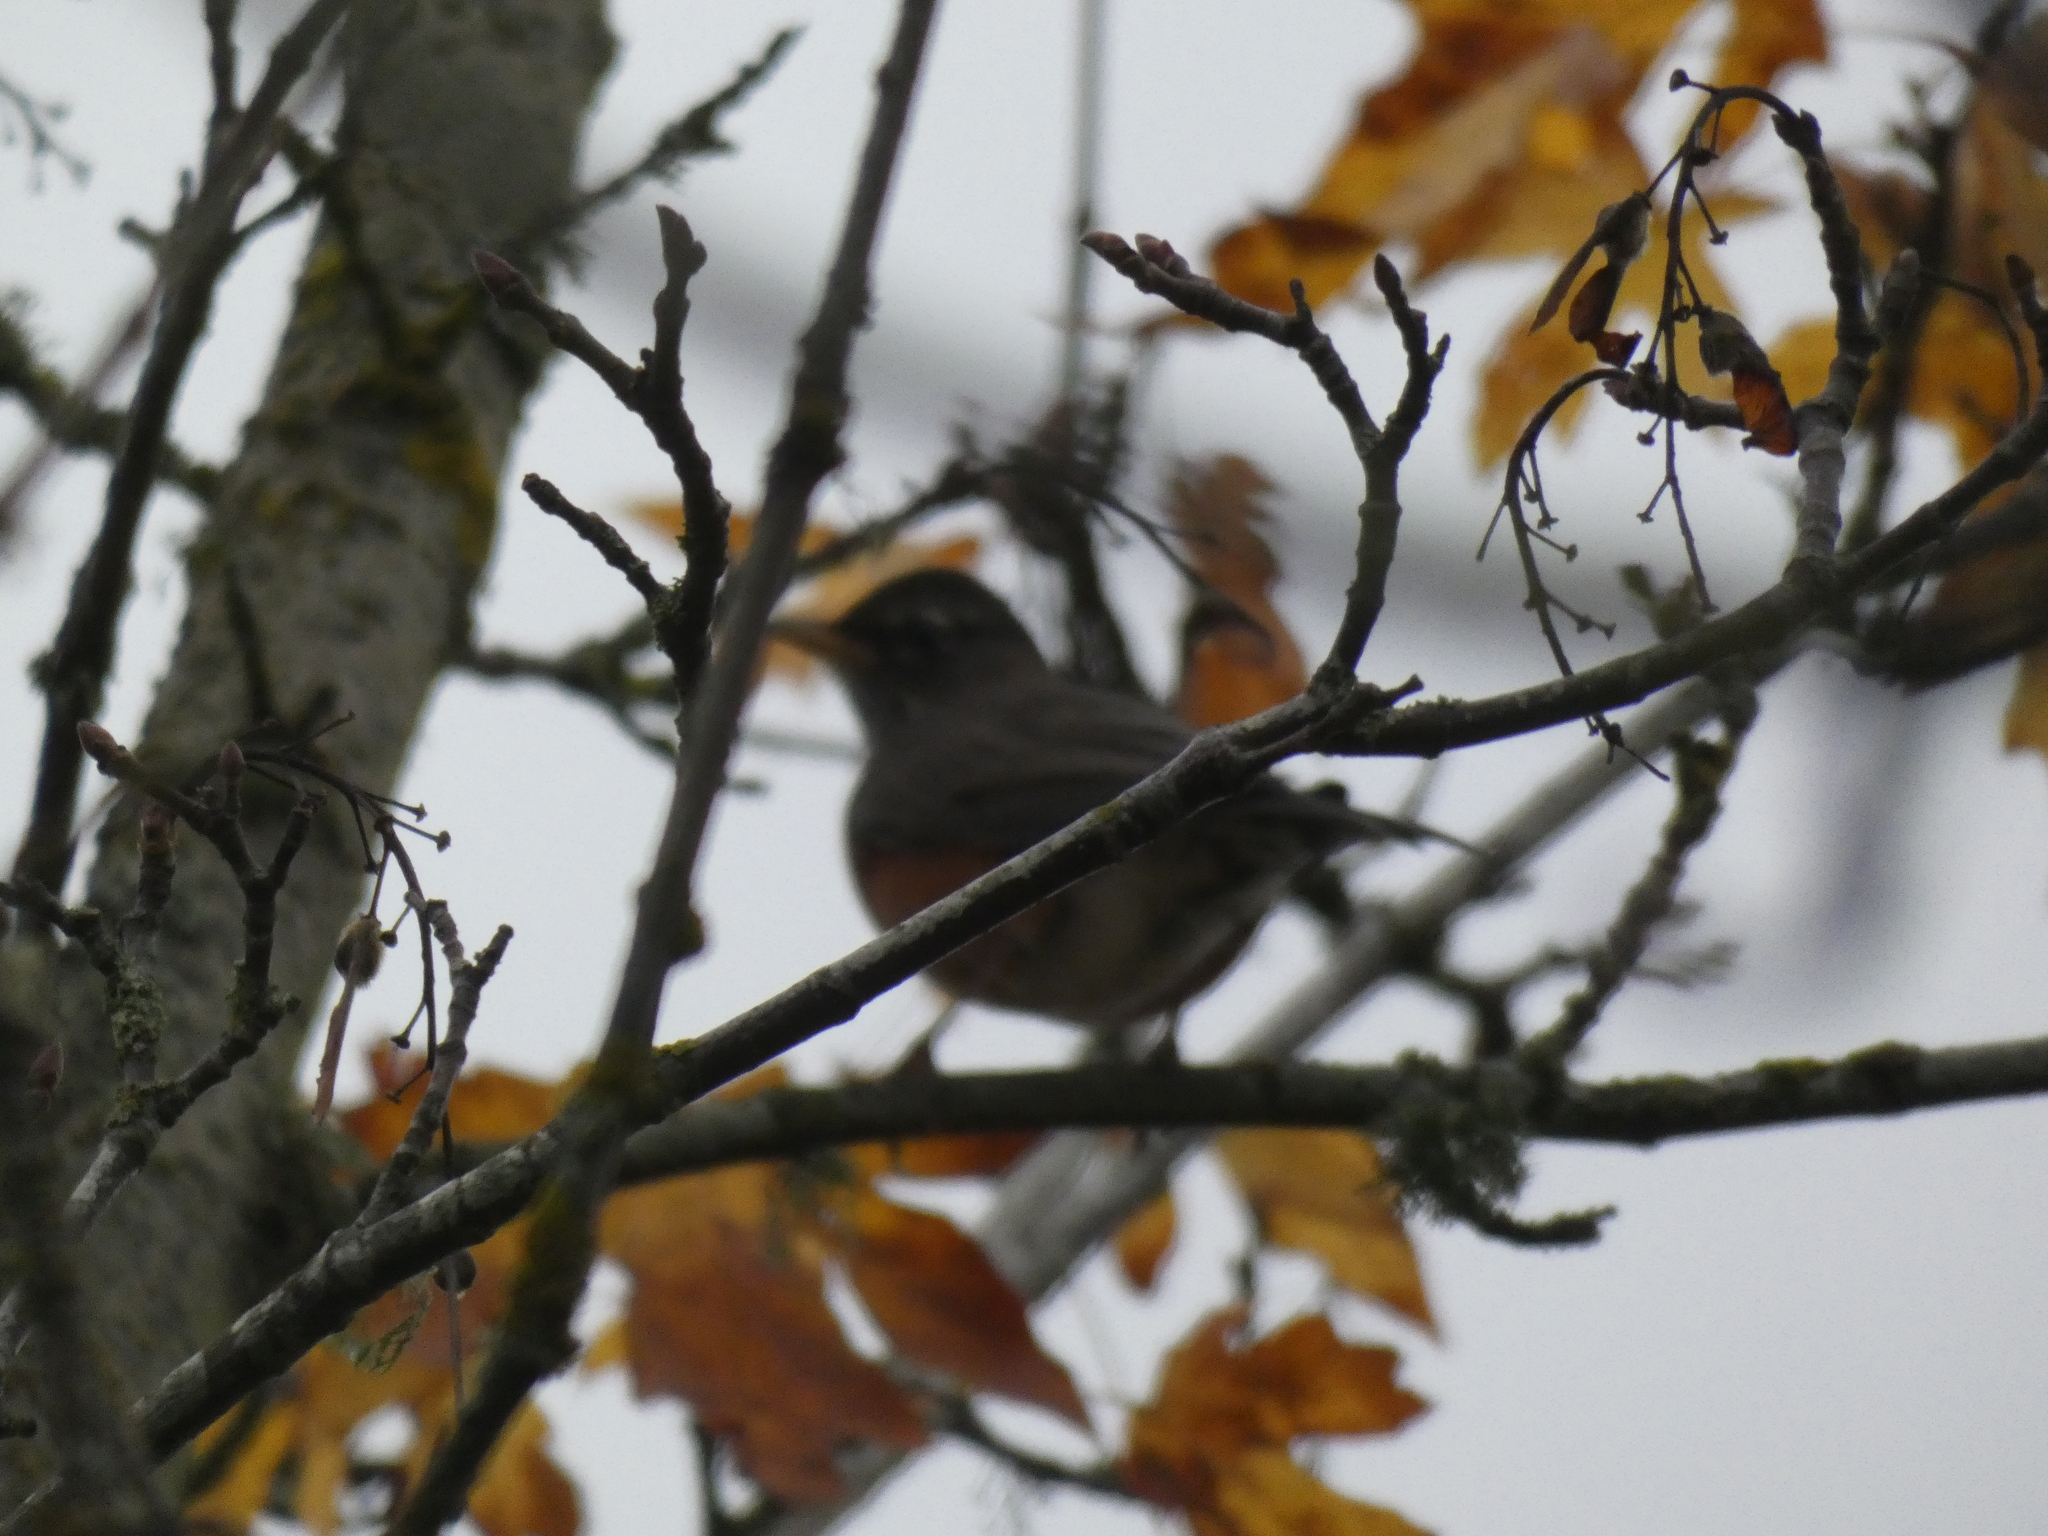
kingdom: Animalia
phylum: Chordata
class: Aves
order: Passeriformes
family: Turdidae
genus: Turdus
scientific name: Turdus migratorius
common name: American robin
